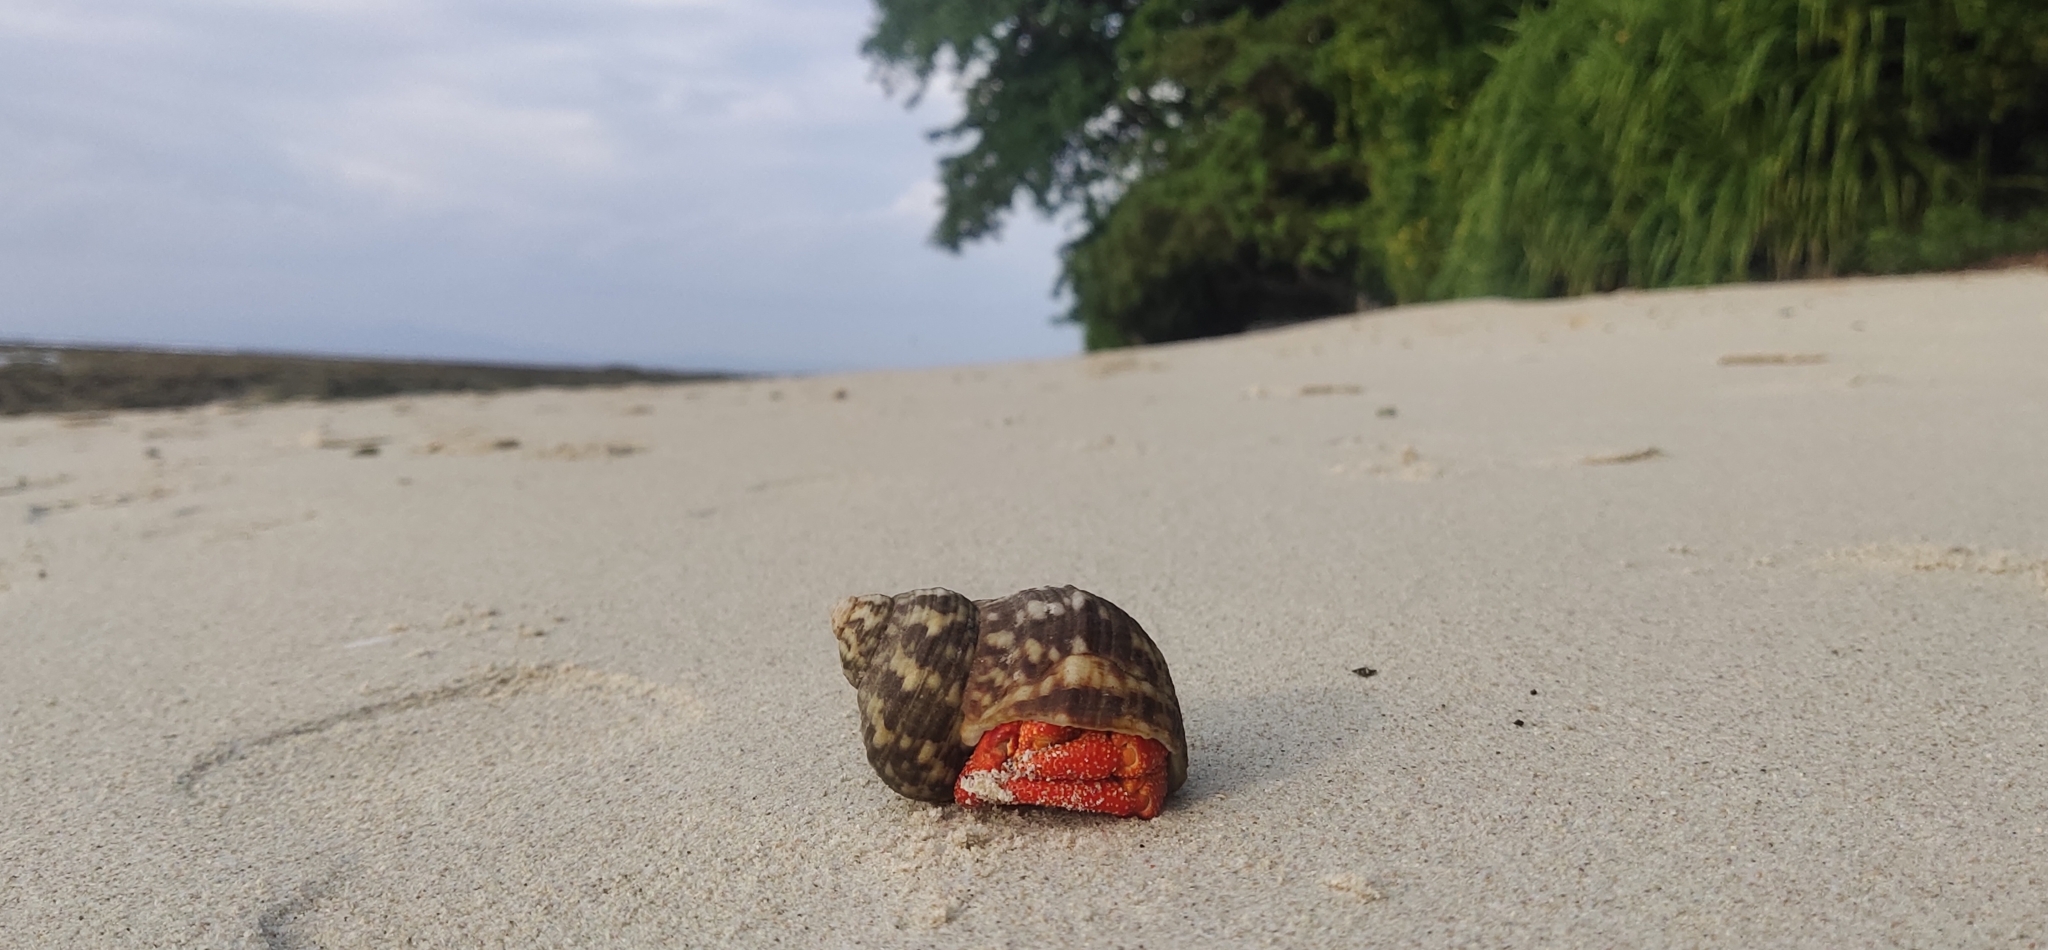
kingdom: Animalia
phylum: Arthropoda
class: Malacostraca
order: Decapoda
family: Coenobitidae
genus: Coenobita
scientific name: Coenobita perlatus
